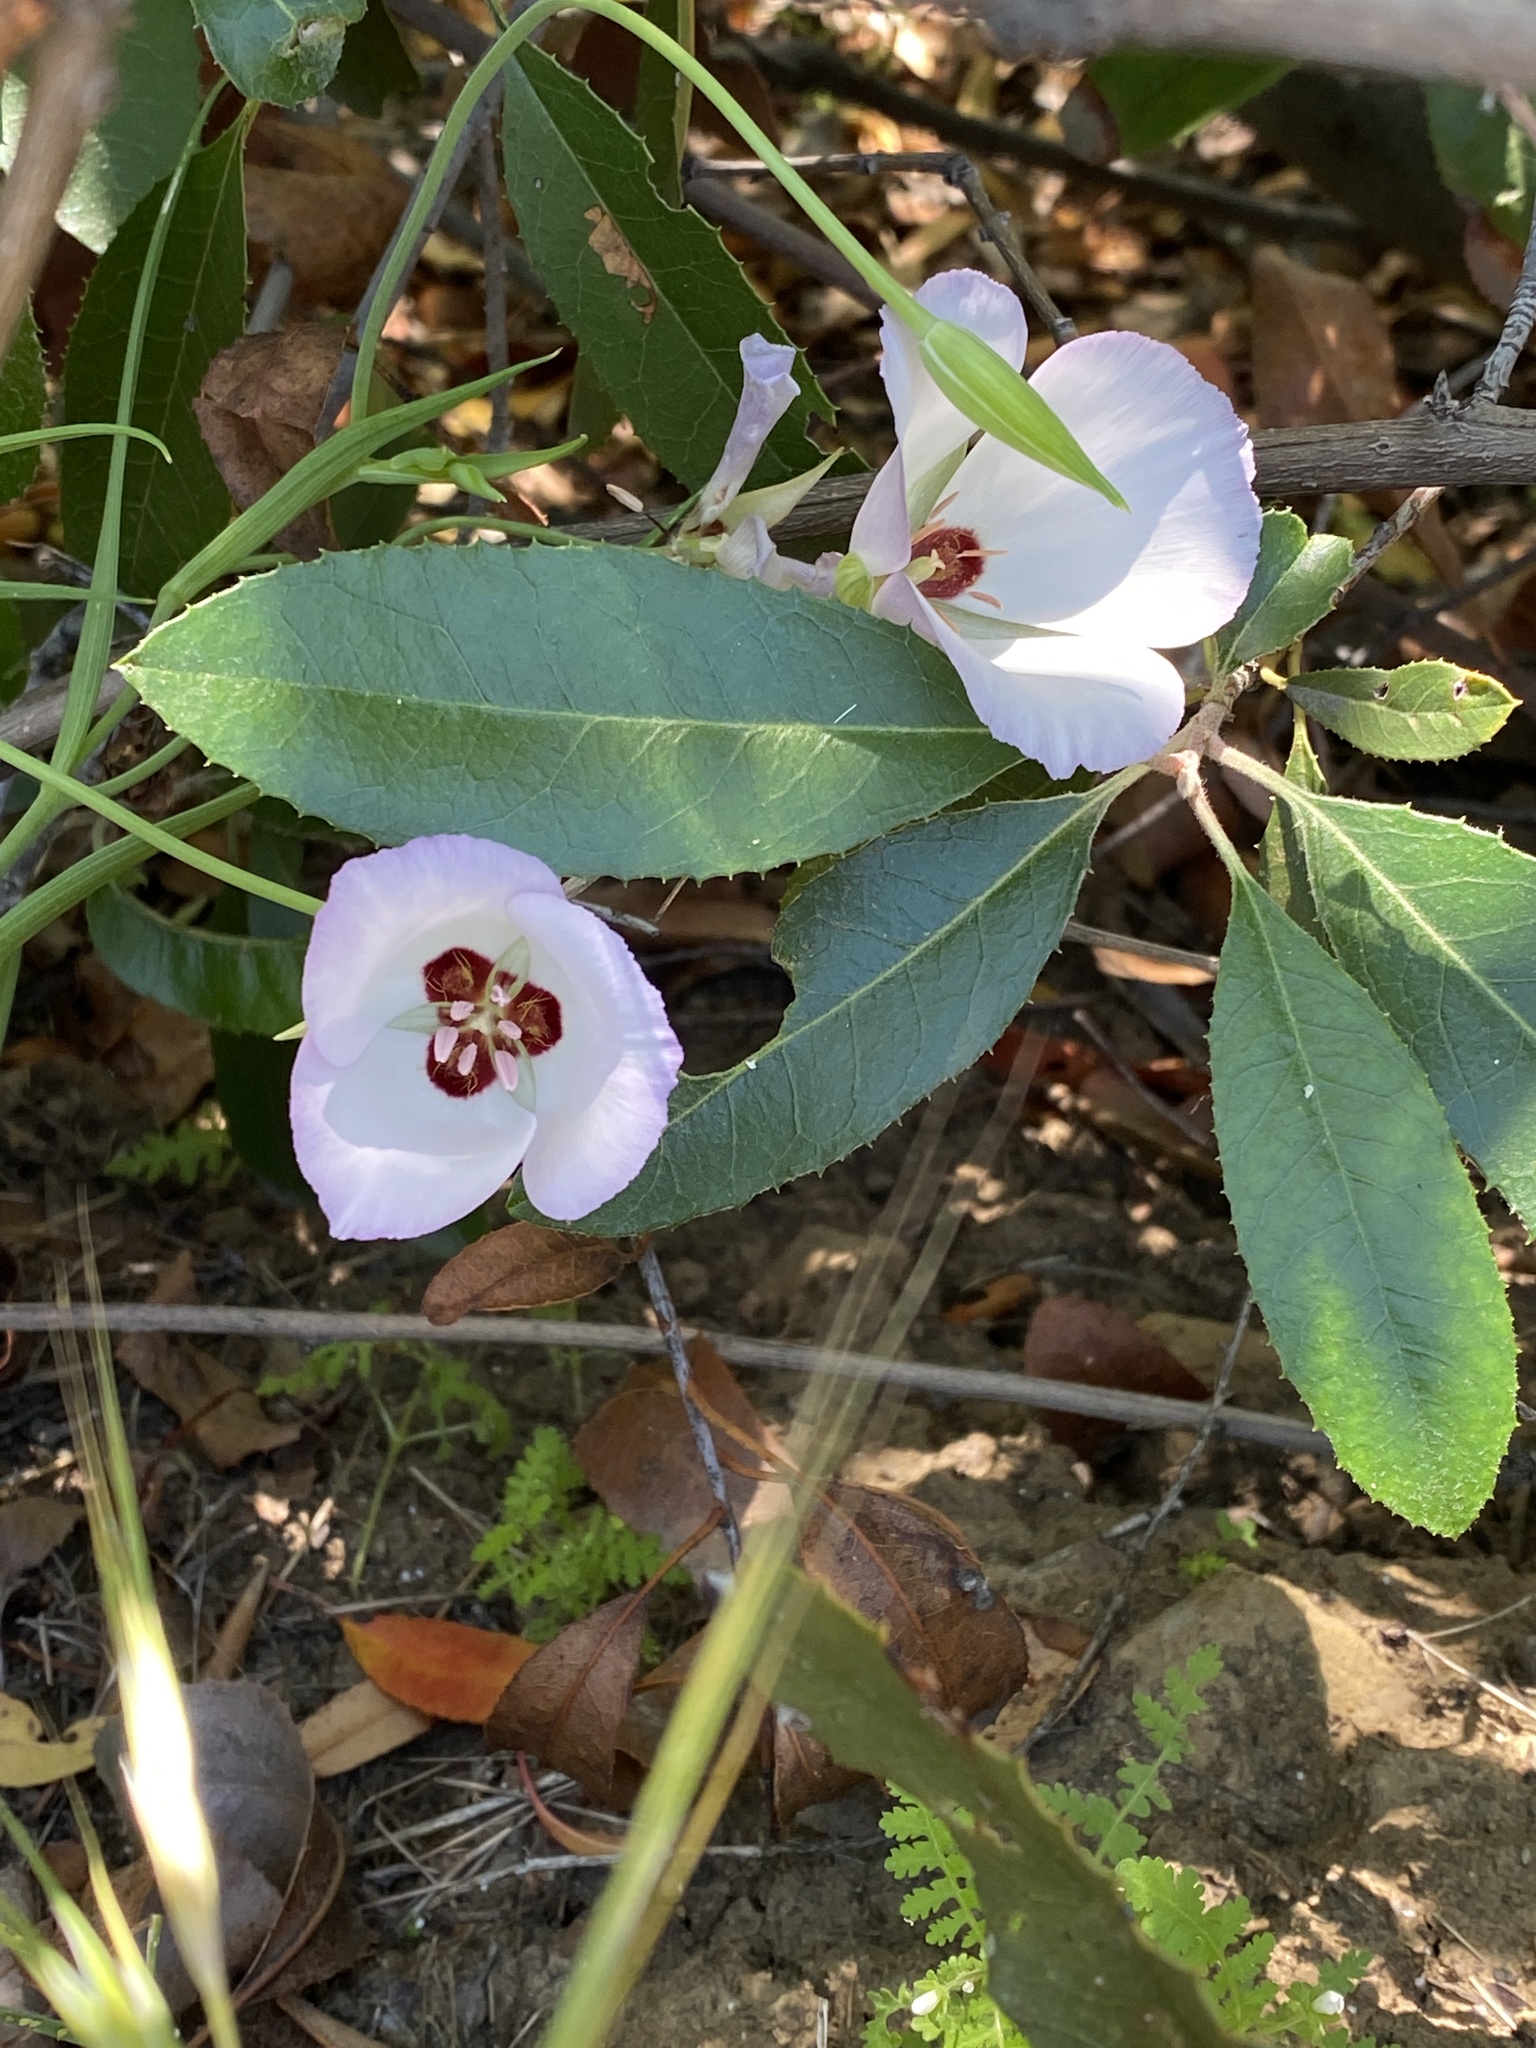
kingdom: Plantae
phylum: Tracheophyta
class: Liliopsida
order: Liliales
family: Liliaceae
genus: Calochortus
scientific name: Calochortus catalinae
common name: Catalina mariposa-lily
